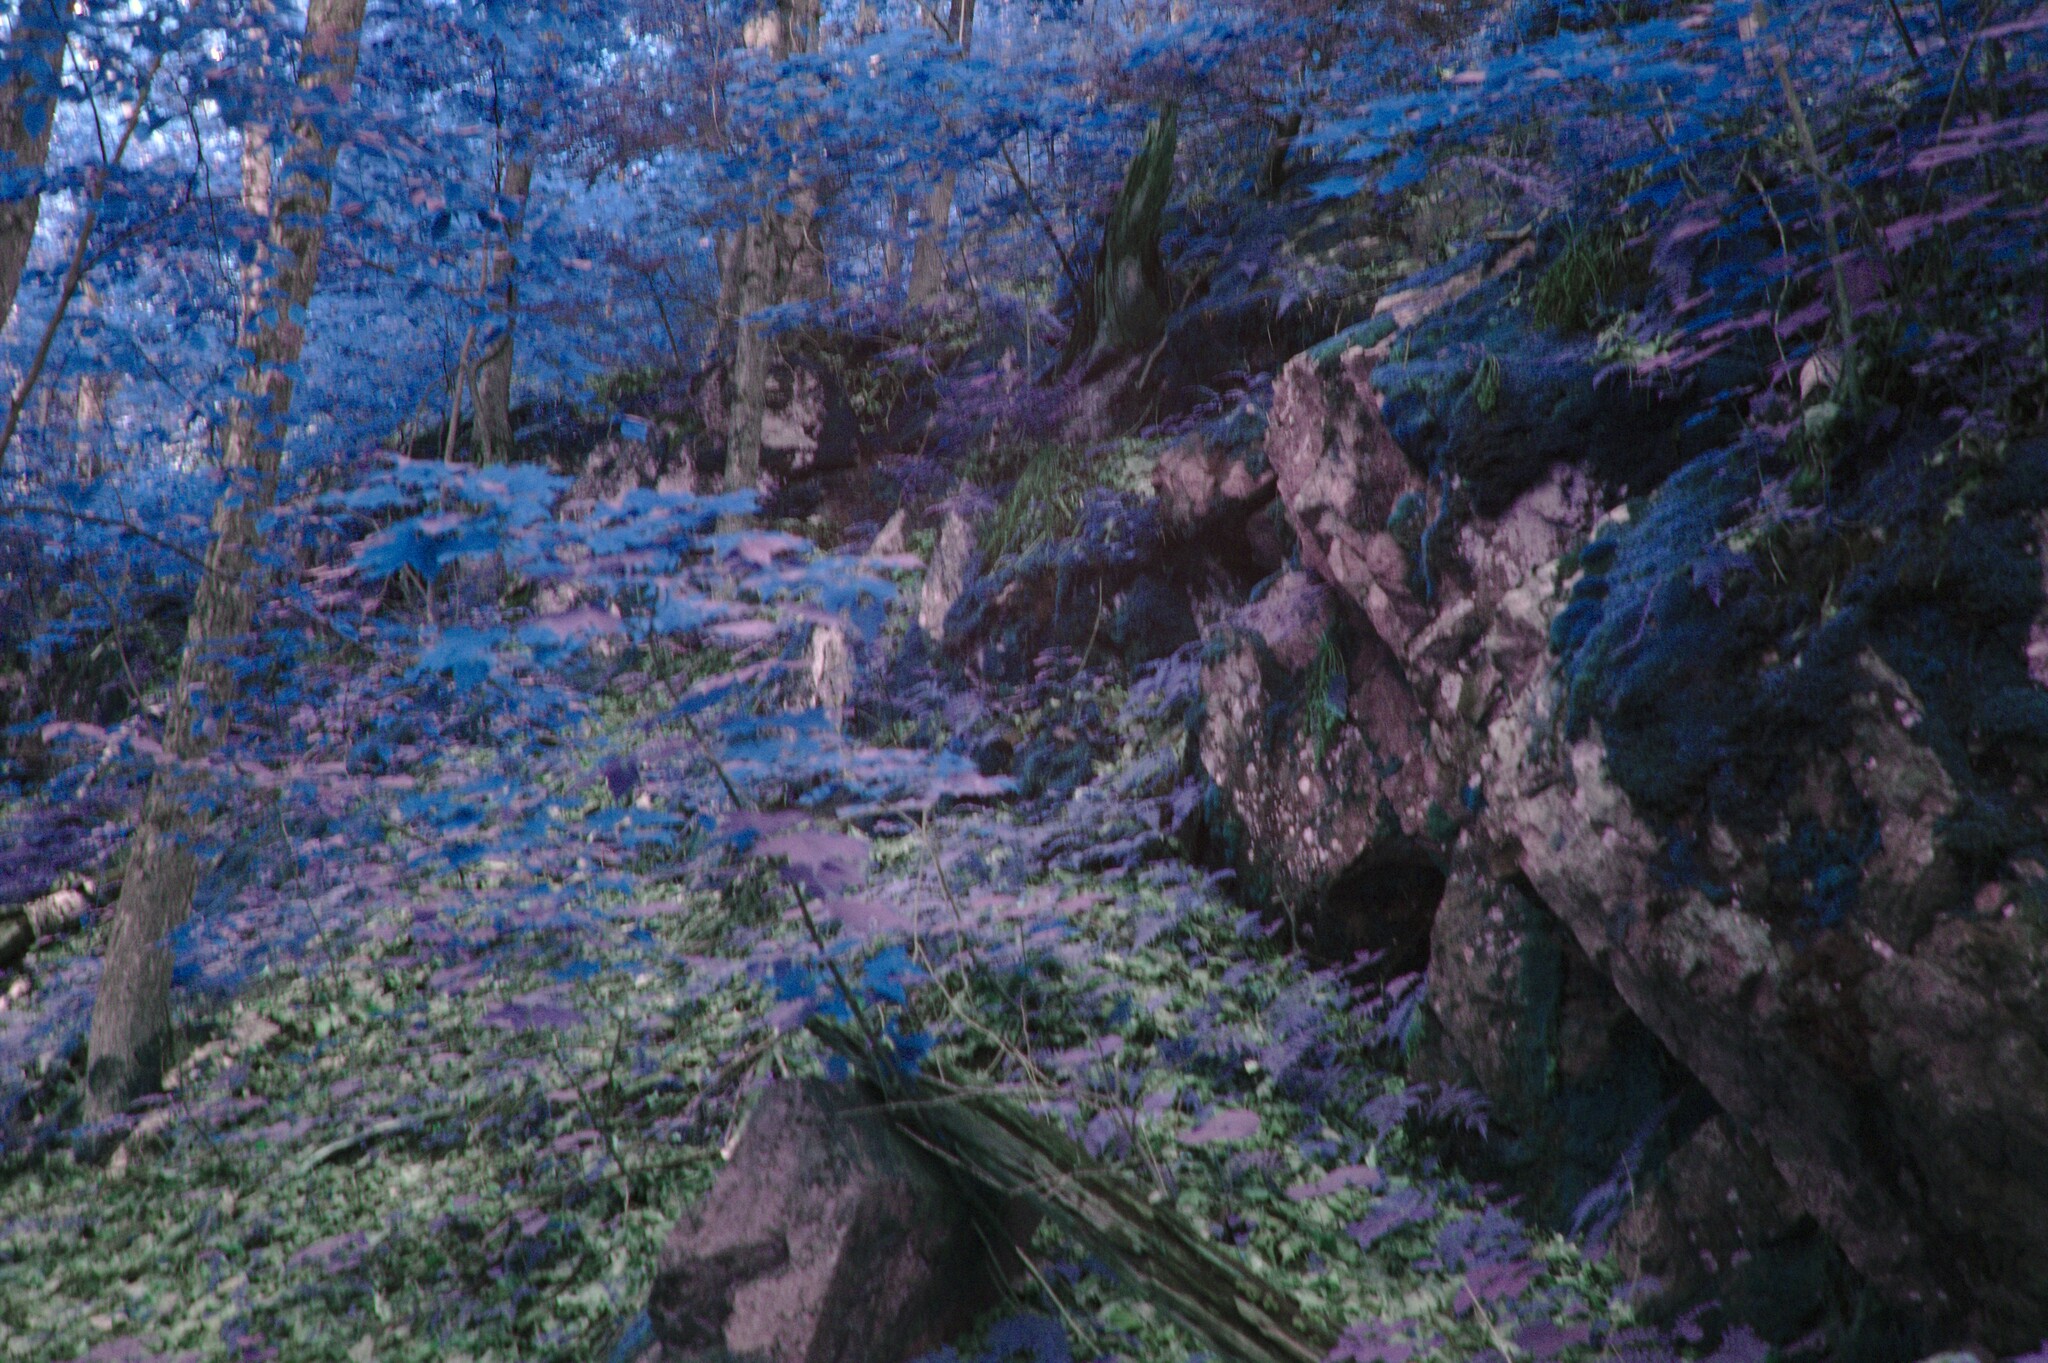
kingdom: Plantae
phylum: Tracheophyta
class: Polypodiopsida
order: Polypodiales
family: Pteridaceae
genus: Adiantum
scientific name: Adiantum pedatum
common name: Five-finger fern
